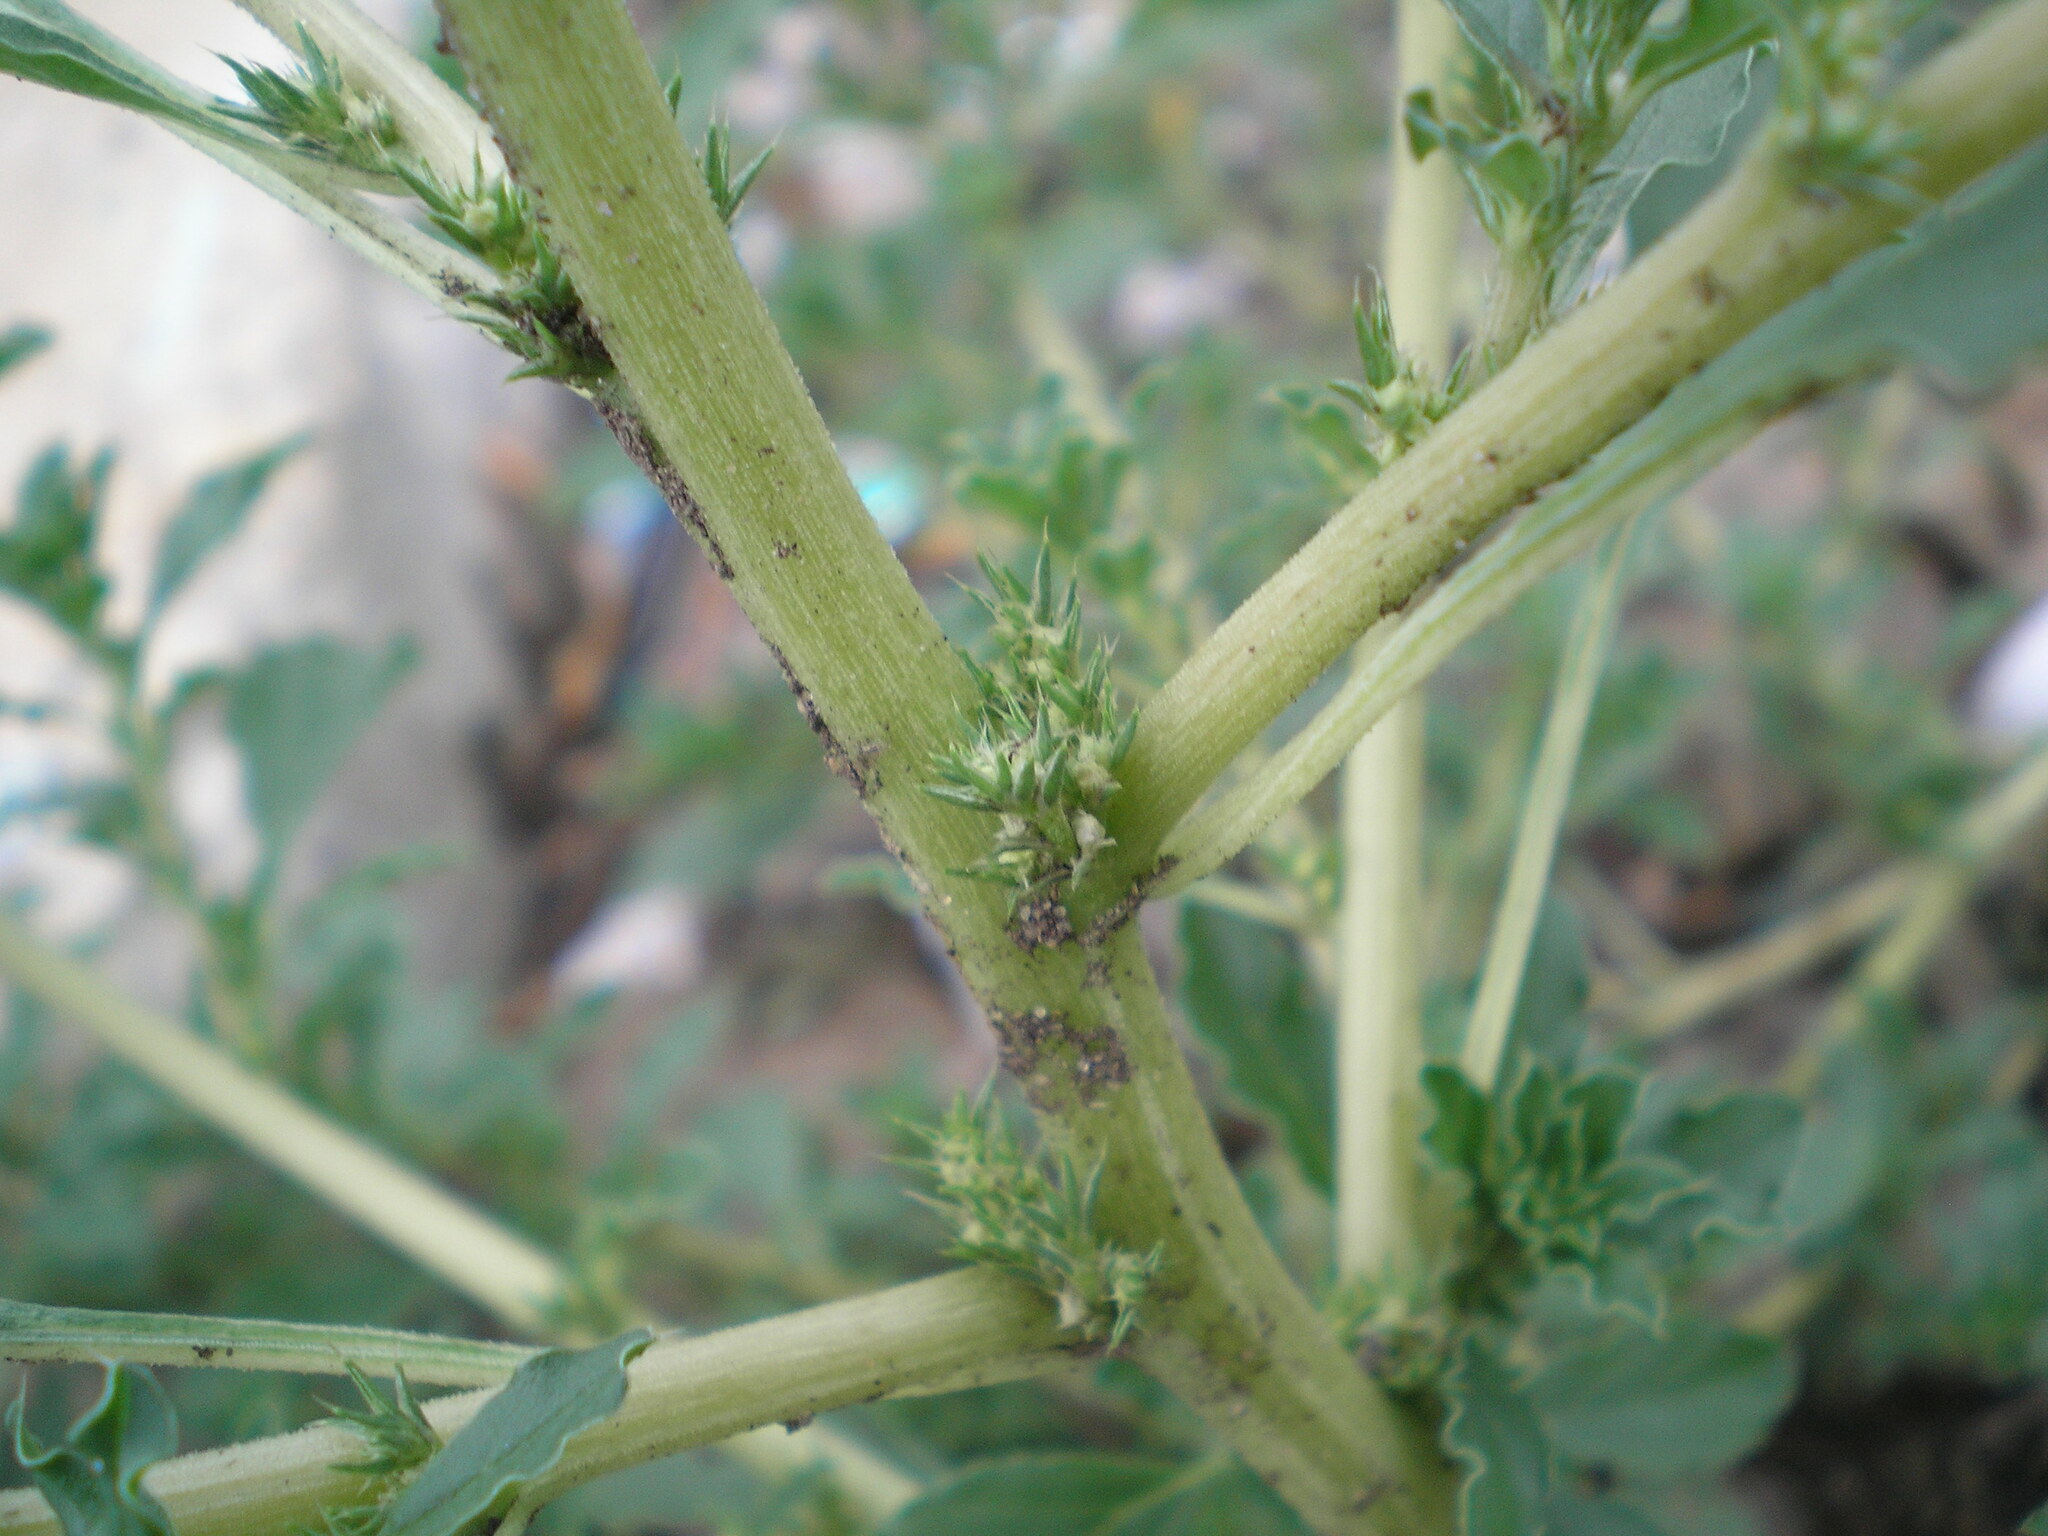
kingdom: Plantae
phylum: Tracheophyta
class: Magnoliopsida
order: Caryophyllales
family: Amaranthaceae
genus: Amaranthus
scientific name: Amaranthus albus
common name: White pigweed
